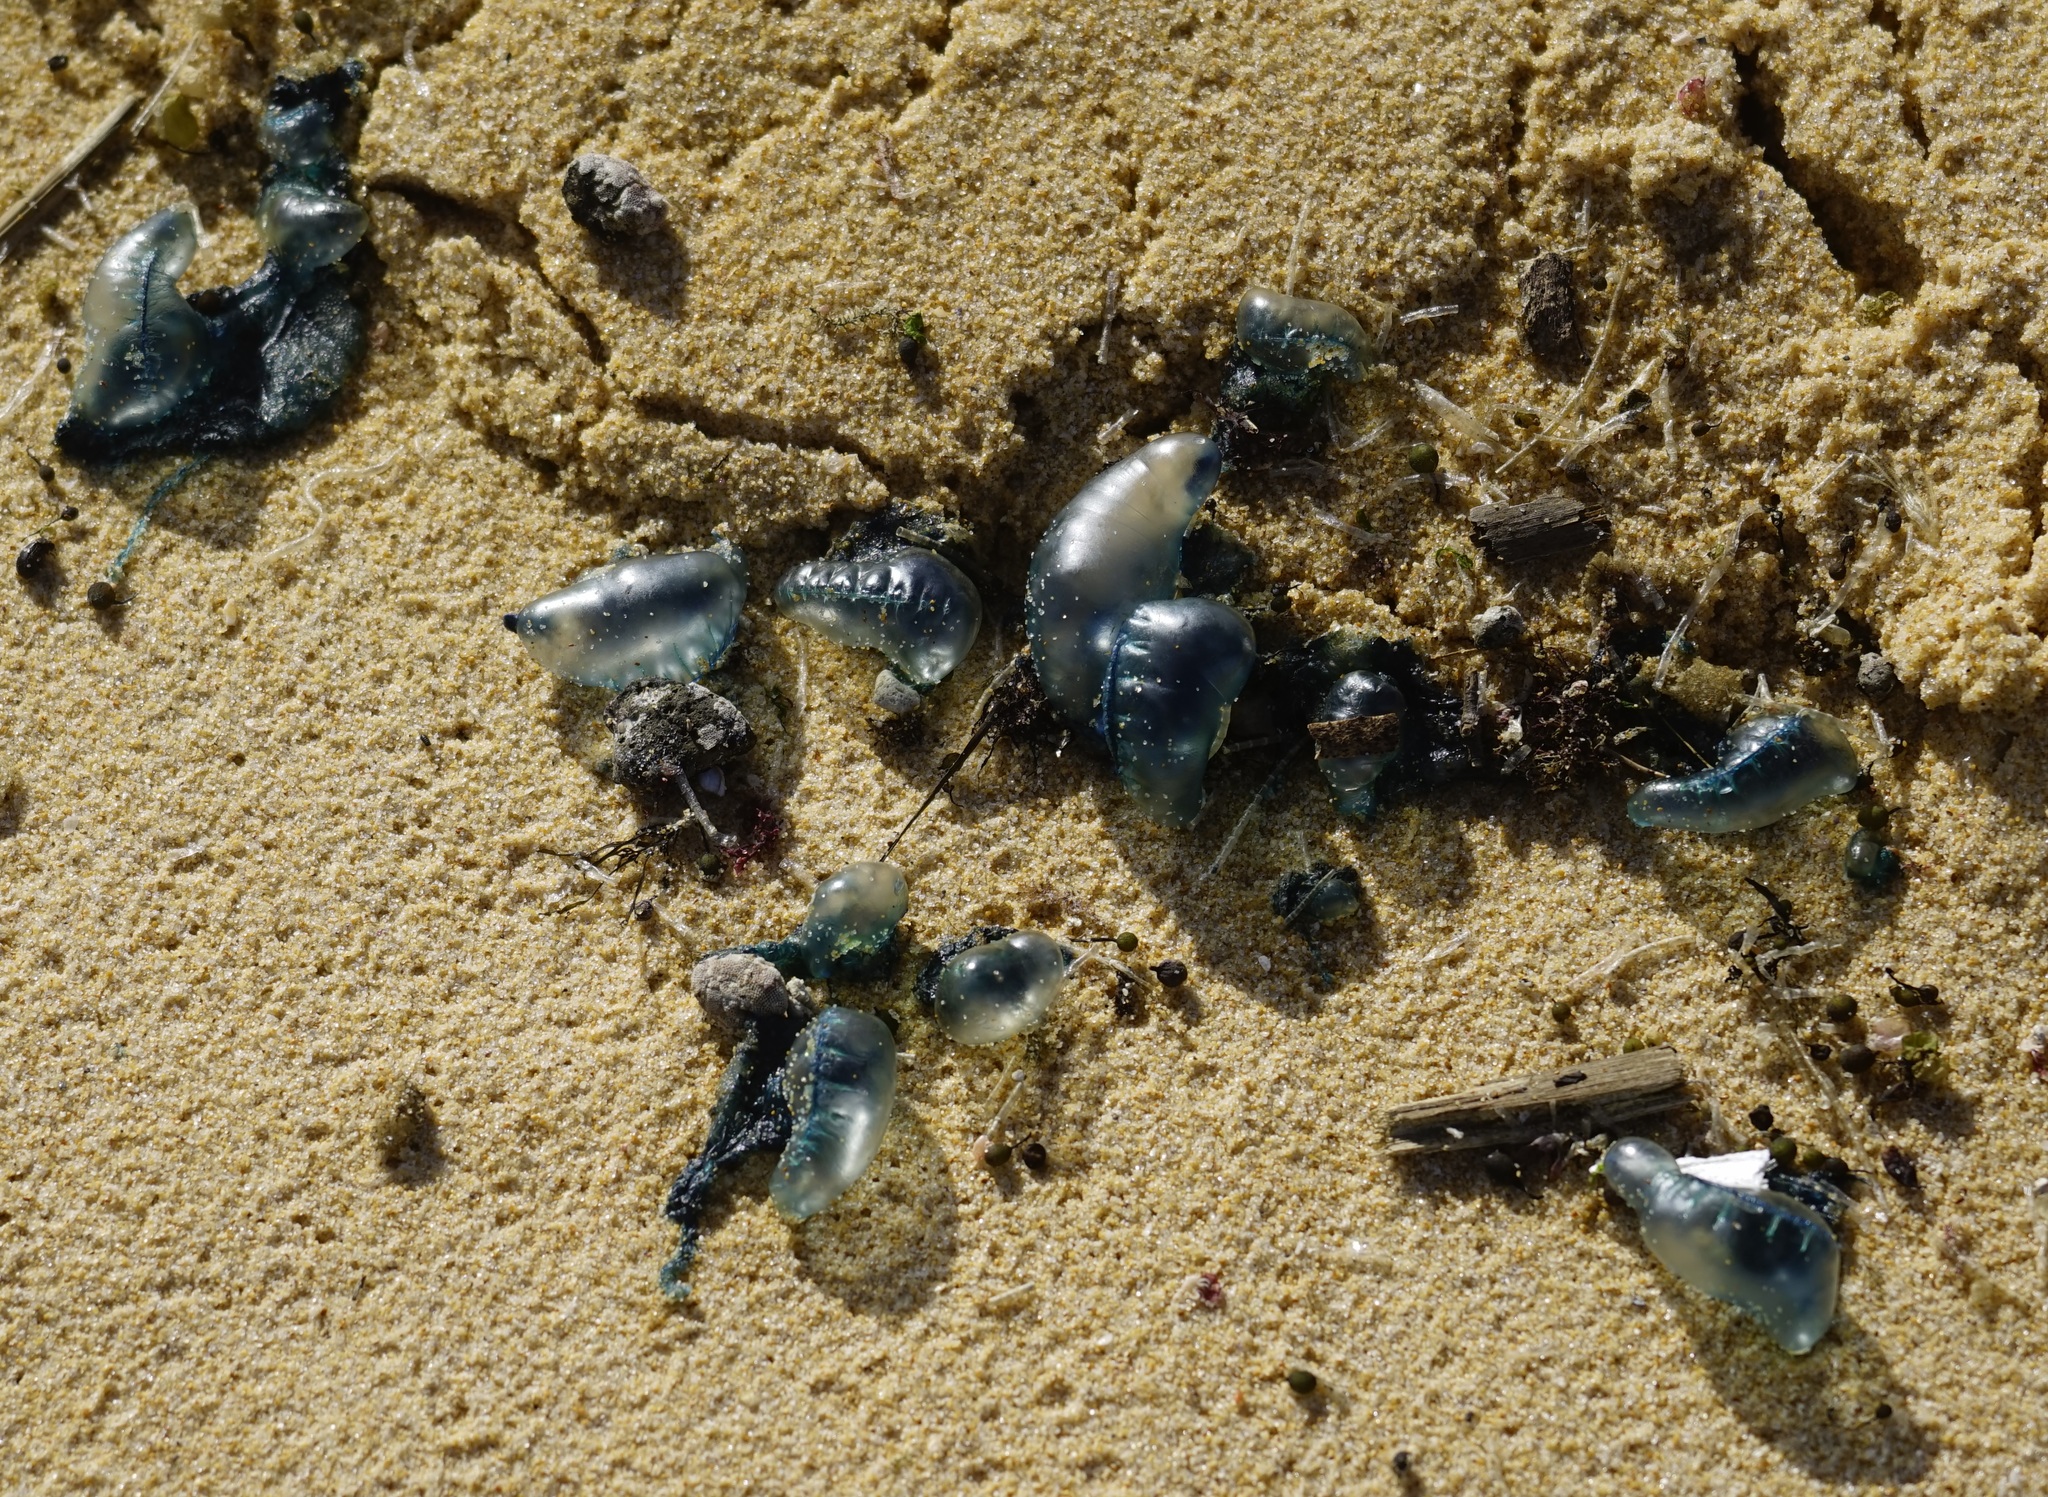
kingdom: Animalia
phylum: Cnidaria
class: Hydrozoa
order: Siphonophorae
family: Physaliidae
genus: Physalia
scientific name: Physalia physalis
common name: Portuguese man-of-war
